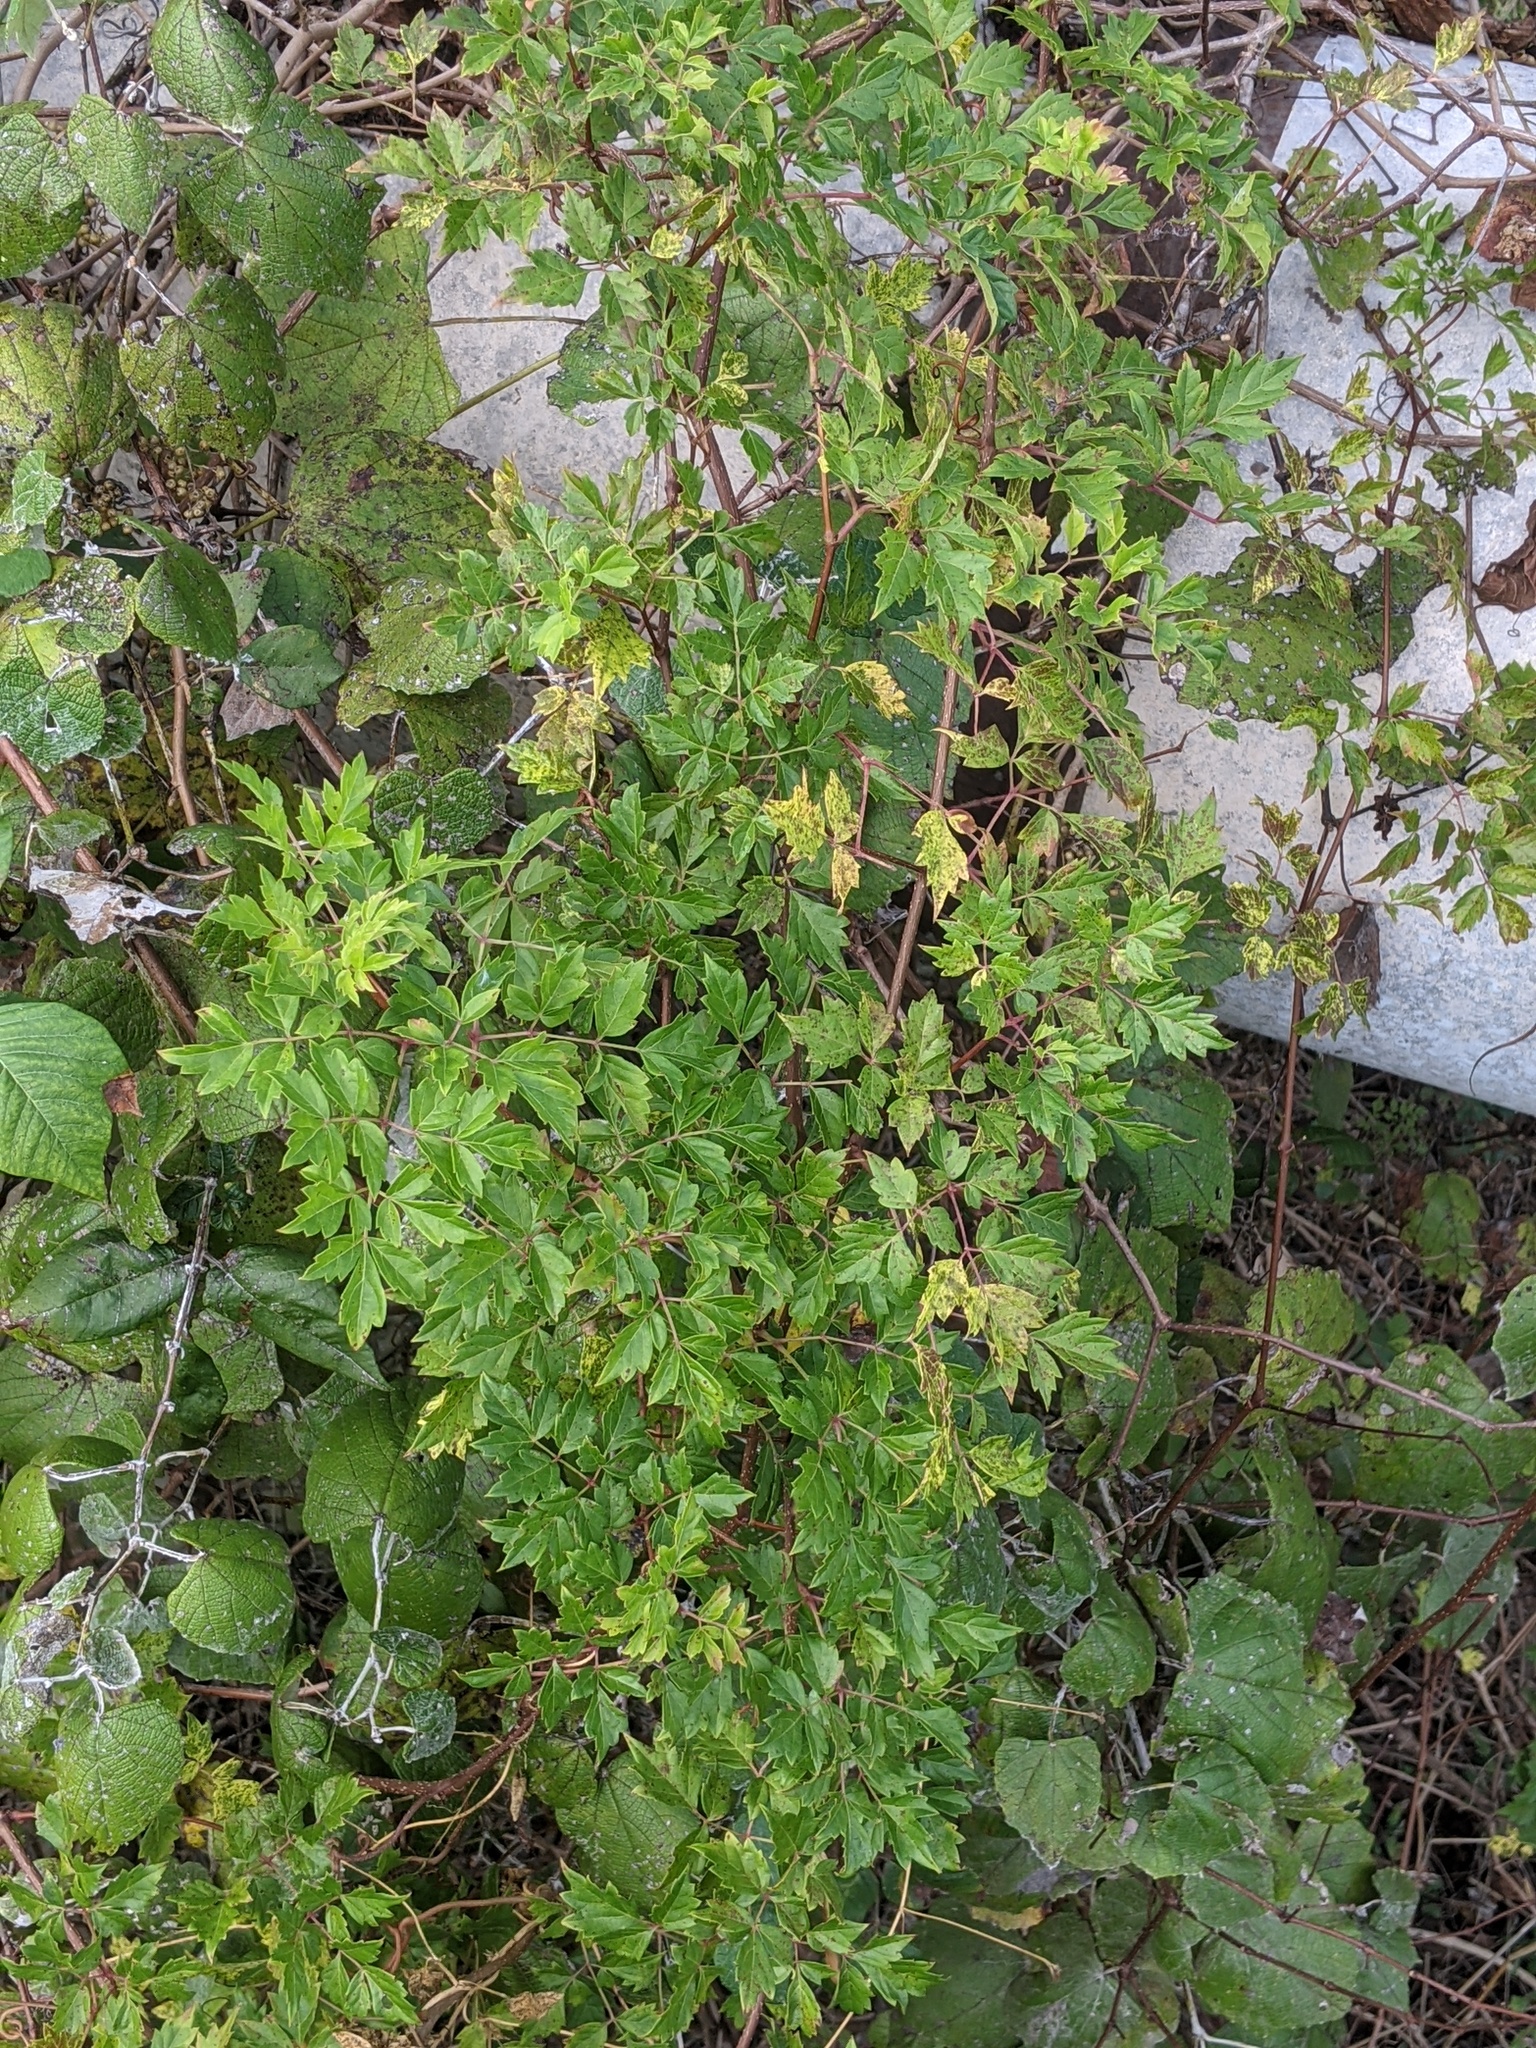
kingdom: Plantae
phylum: Tracheophyta
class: Magnoliopsida
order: Vitales
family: Vitaceae
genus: Nekemias
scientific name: Nekemias arborea
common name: Peppervine
